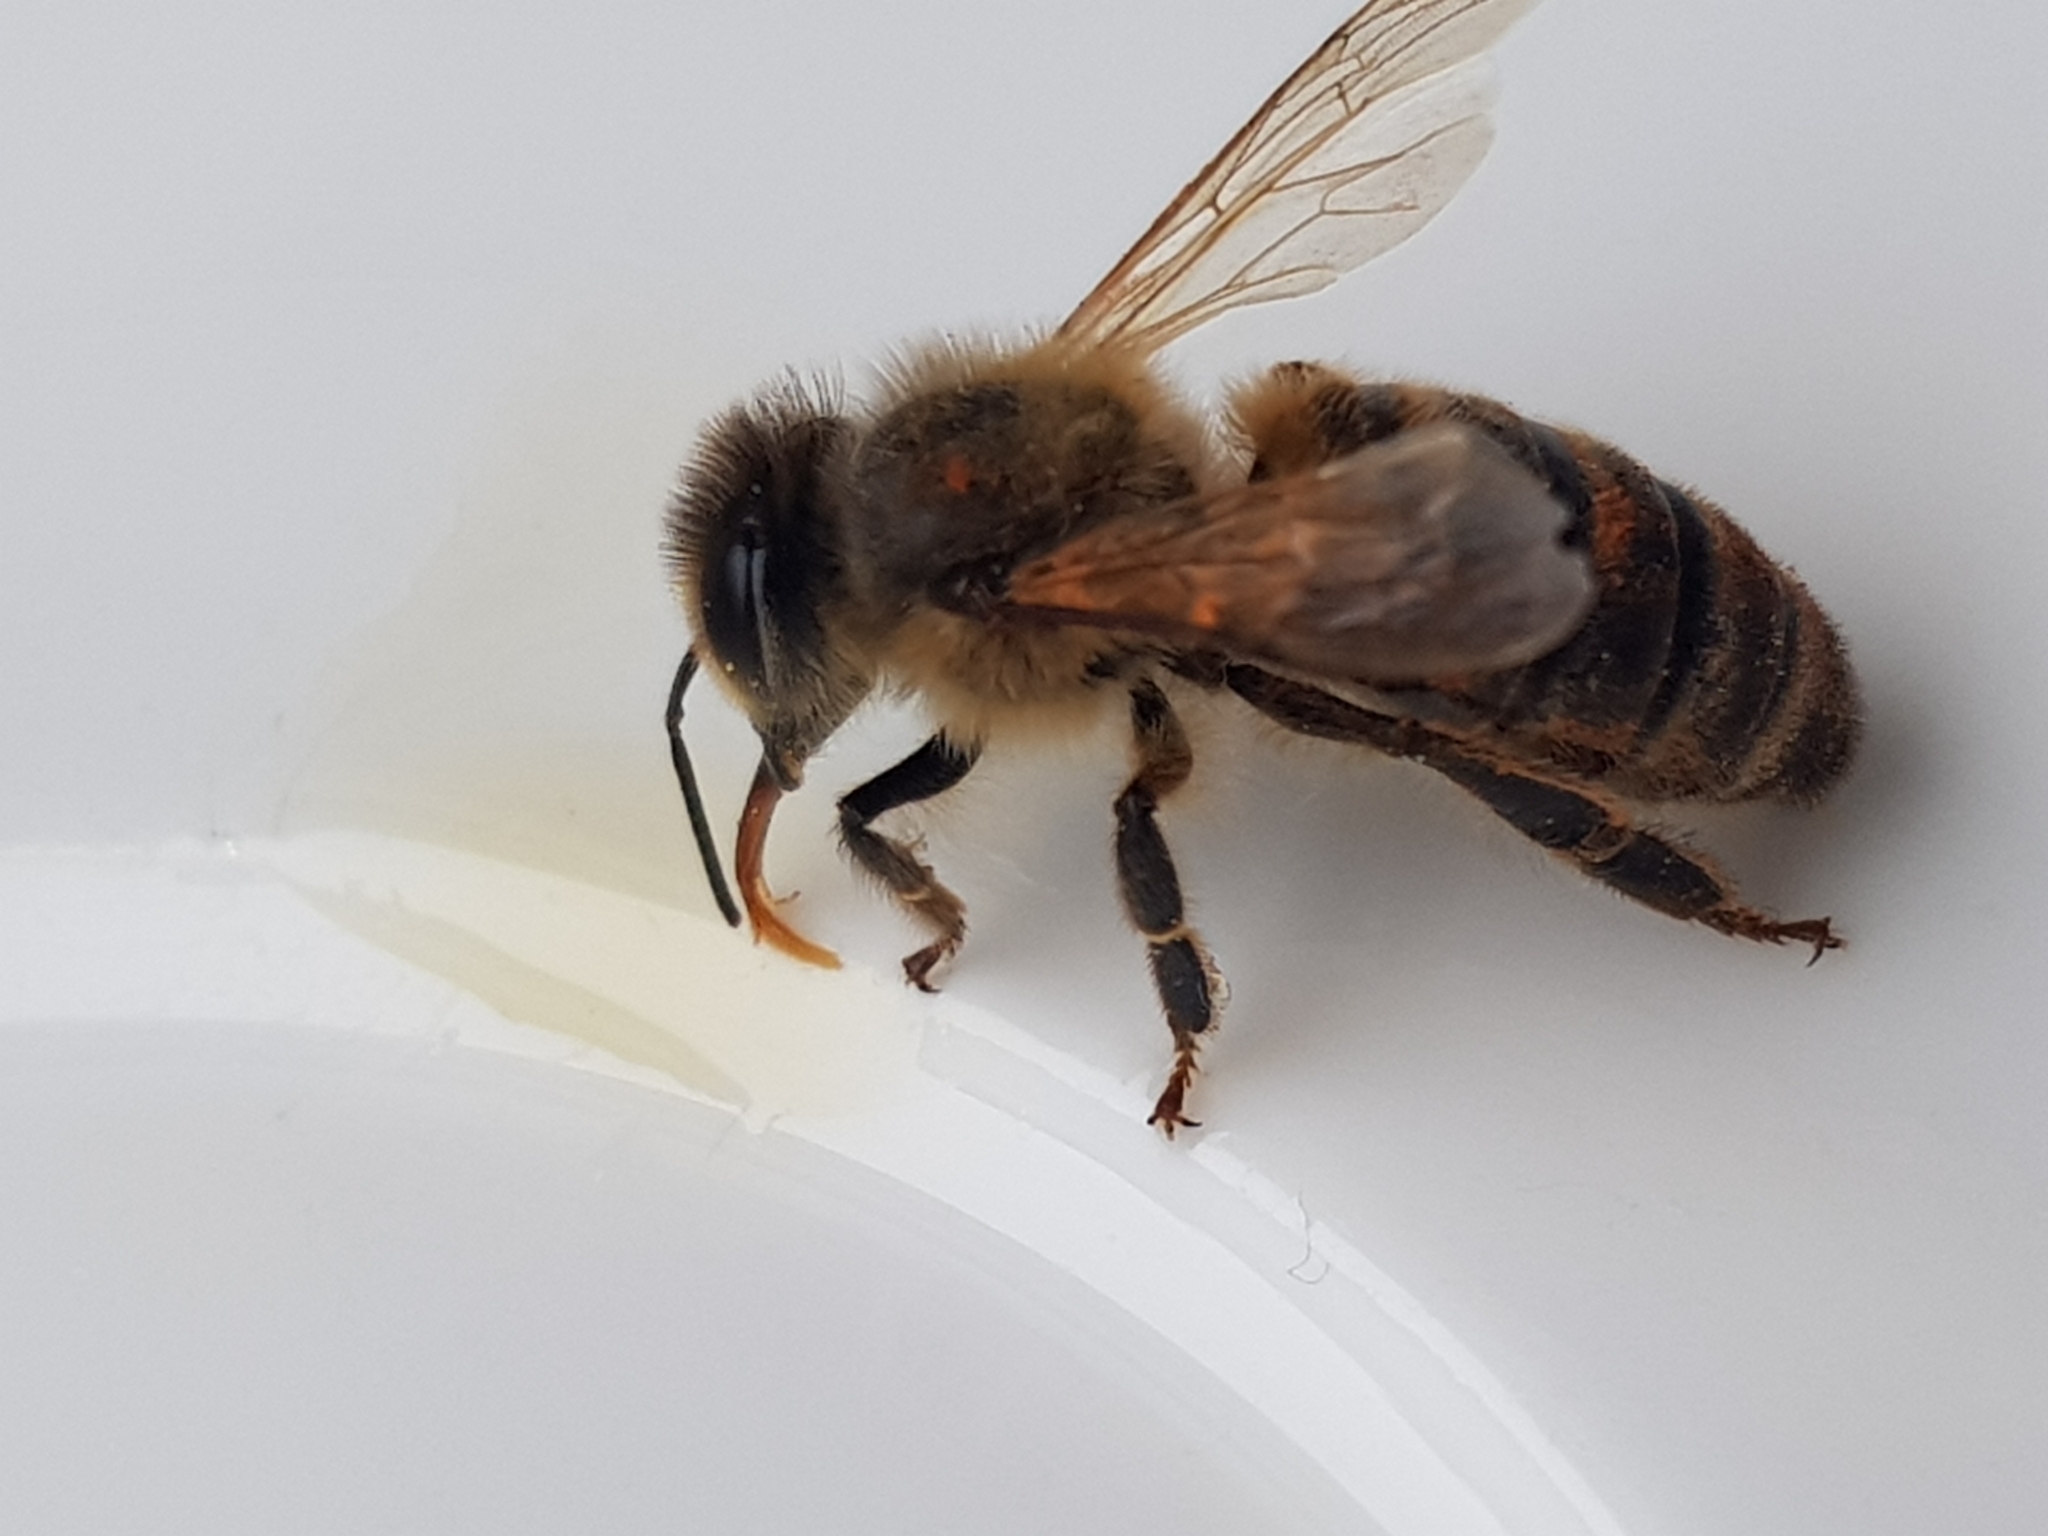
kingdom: Animalia
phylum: Arthropoda
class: Insecta
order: Hymenoptera
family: Apidae
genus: Apis
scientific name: Apis mellifera
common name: Honey bee
